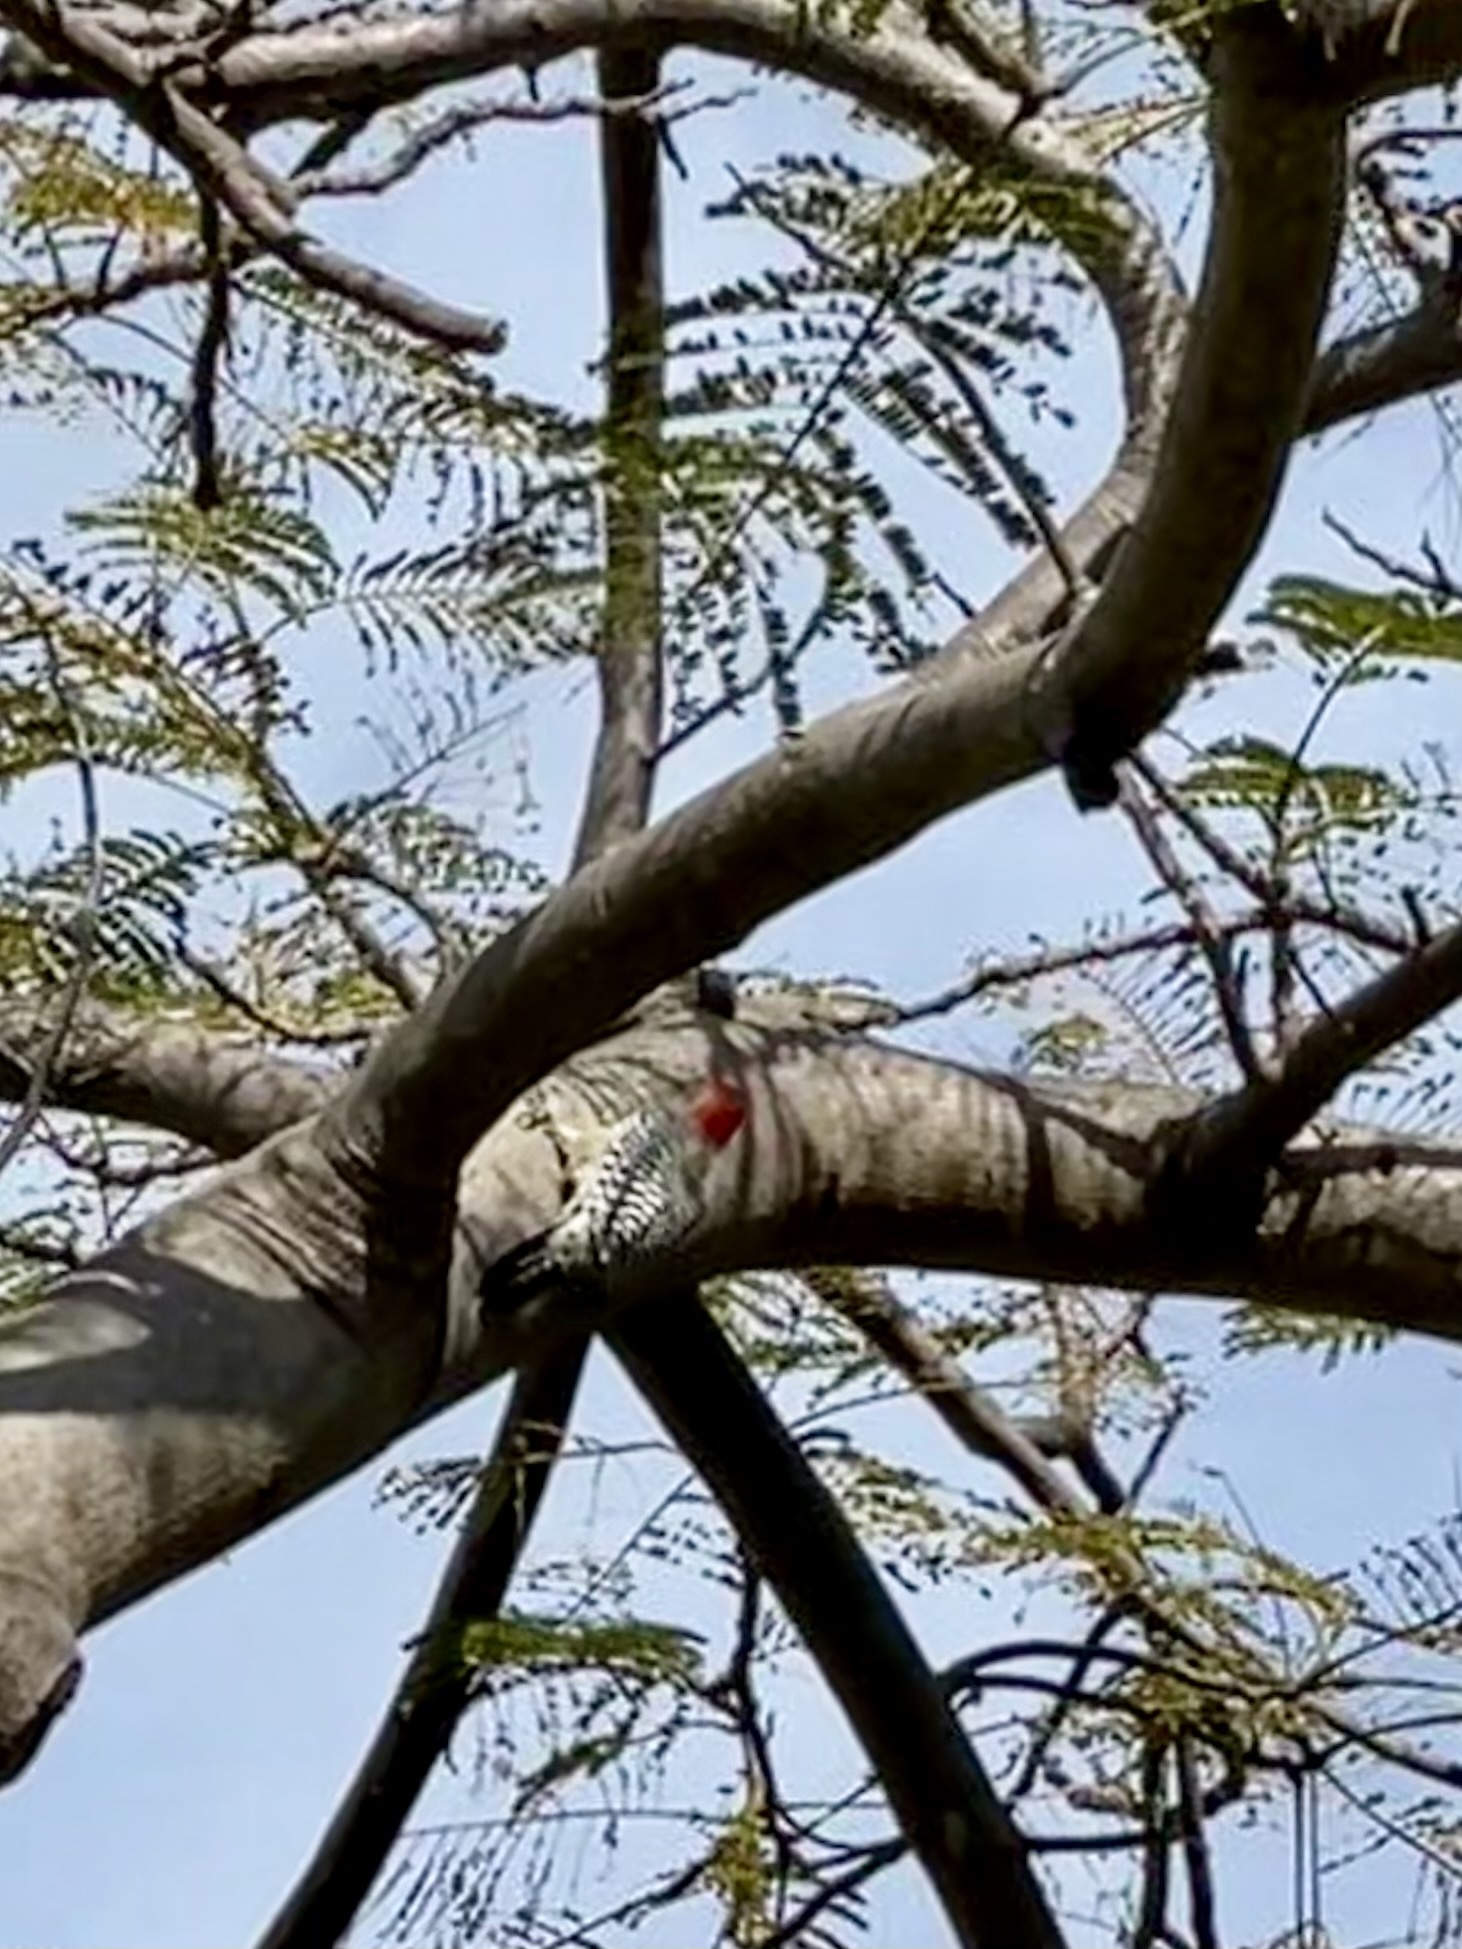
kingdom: Animalia
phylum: Chordata
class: Aves
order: Piciformes
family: Picidae
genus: Melanerpes
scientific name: Melanerpes carolinus
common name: Red-bellied woodpecker
